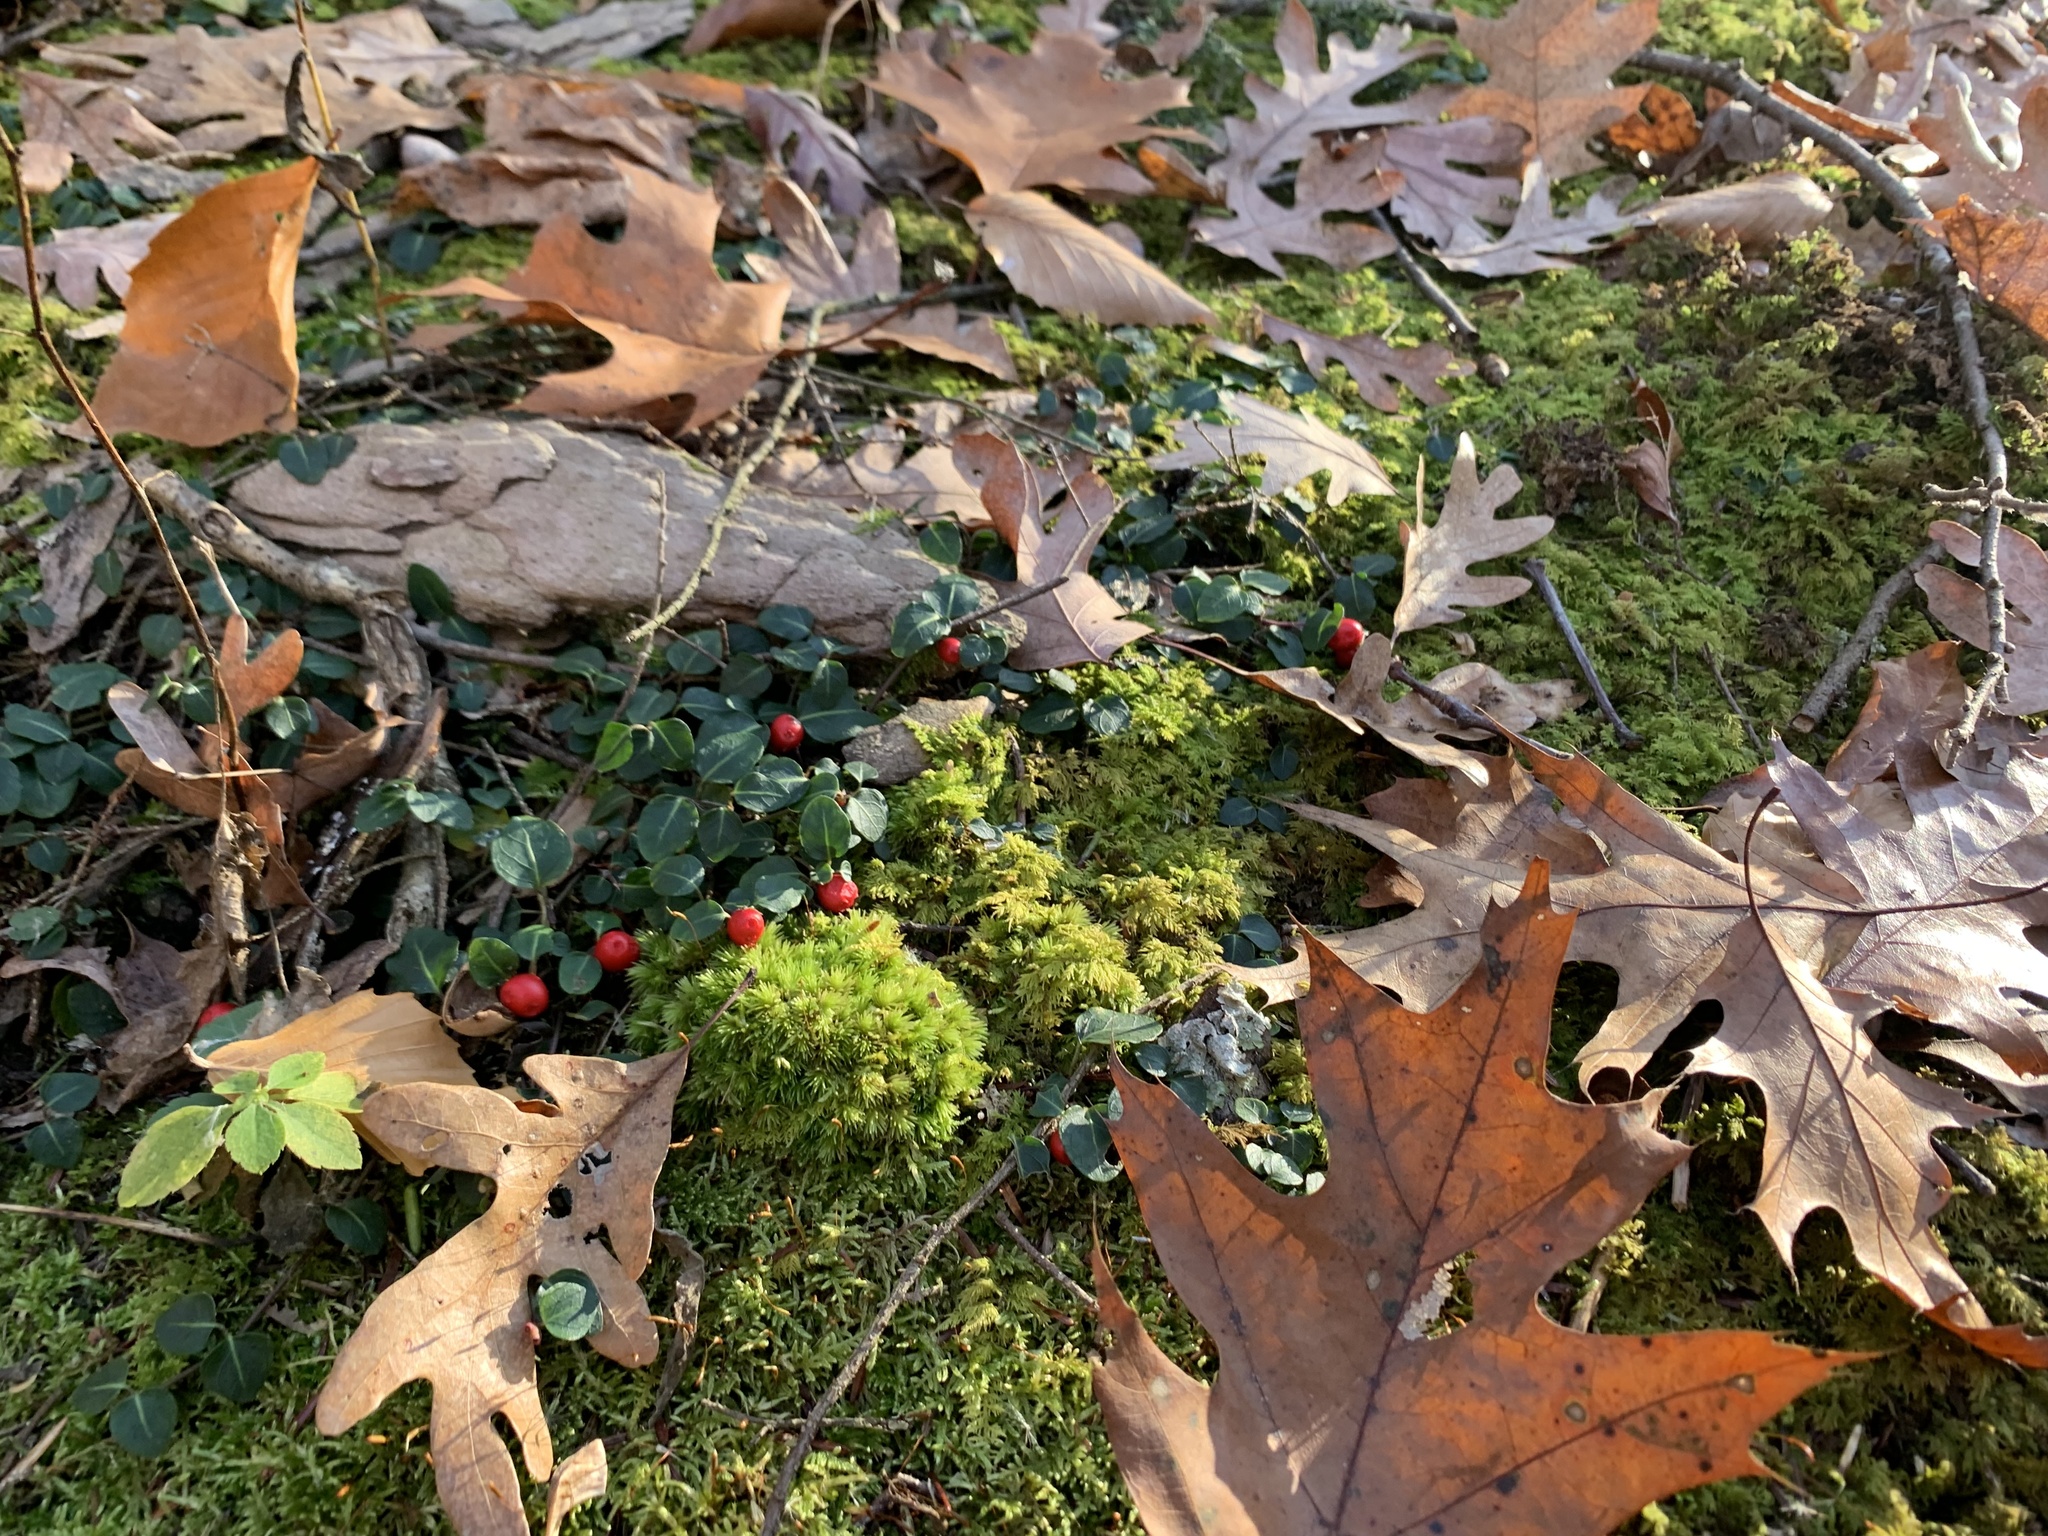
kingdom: Plantae
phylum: Tracheophyta
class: Magnoliopsida
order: Gentianales
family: Rubiaceae
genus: Mitchella
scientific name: Mitchella repens
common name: Partridge-berry
